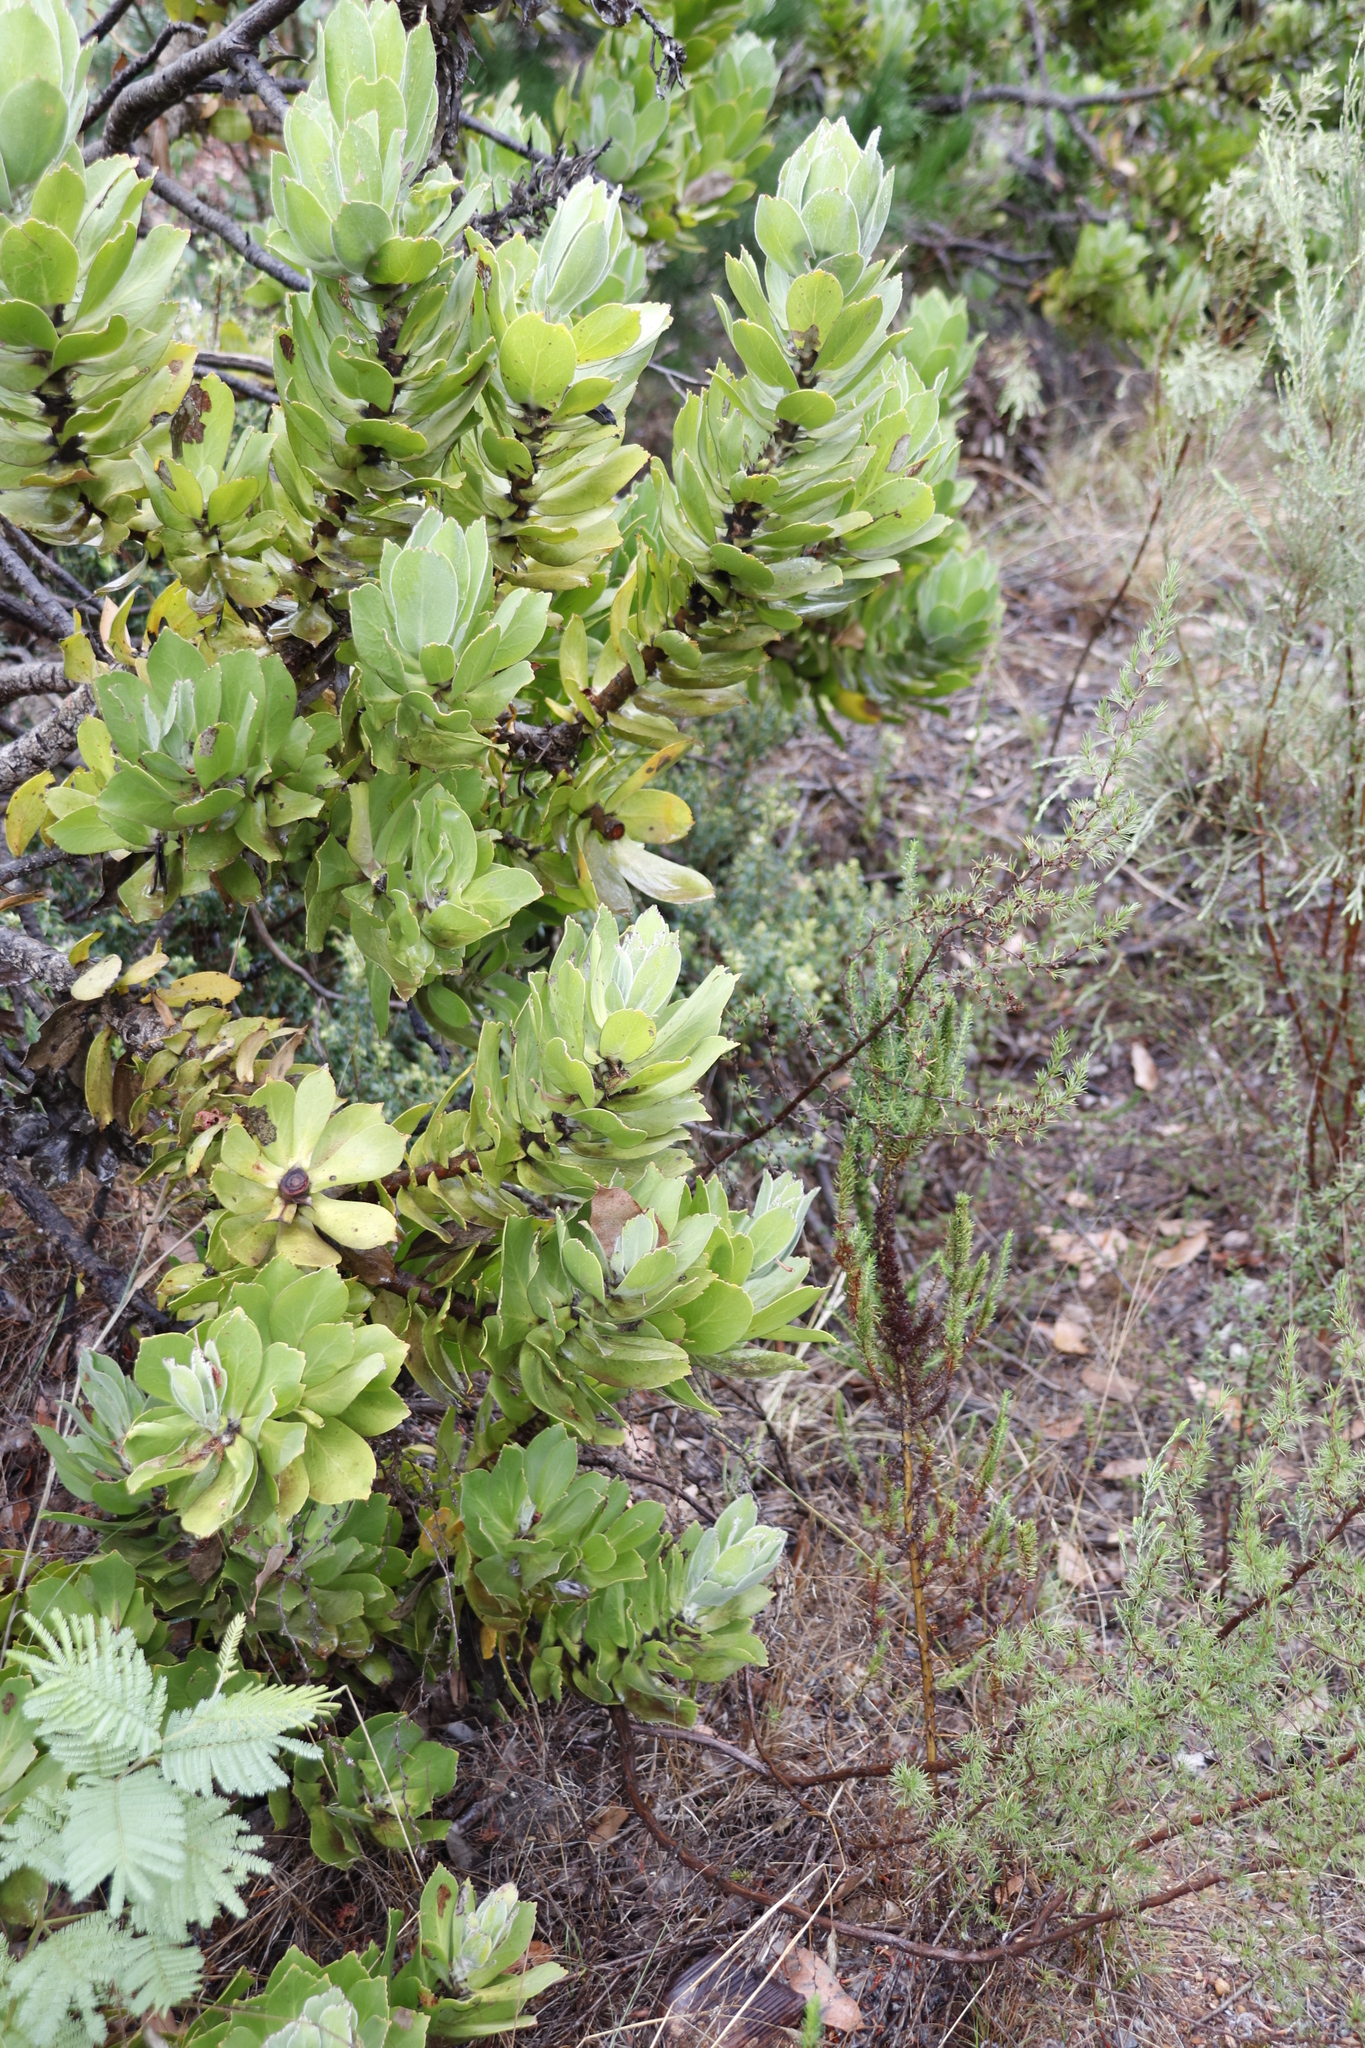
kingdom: Plantae
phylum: Tracheophyta
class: Magnoliopsida
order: Proteales
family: Proteaceae
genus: Leucospermum
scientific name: Leucospermum conocarpodendron
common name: Tree pincushion
